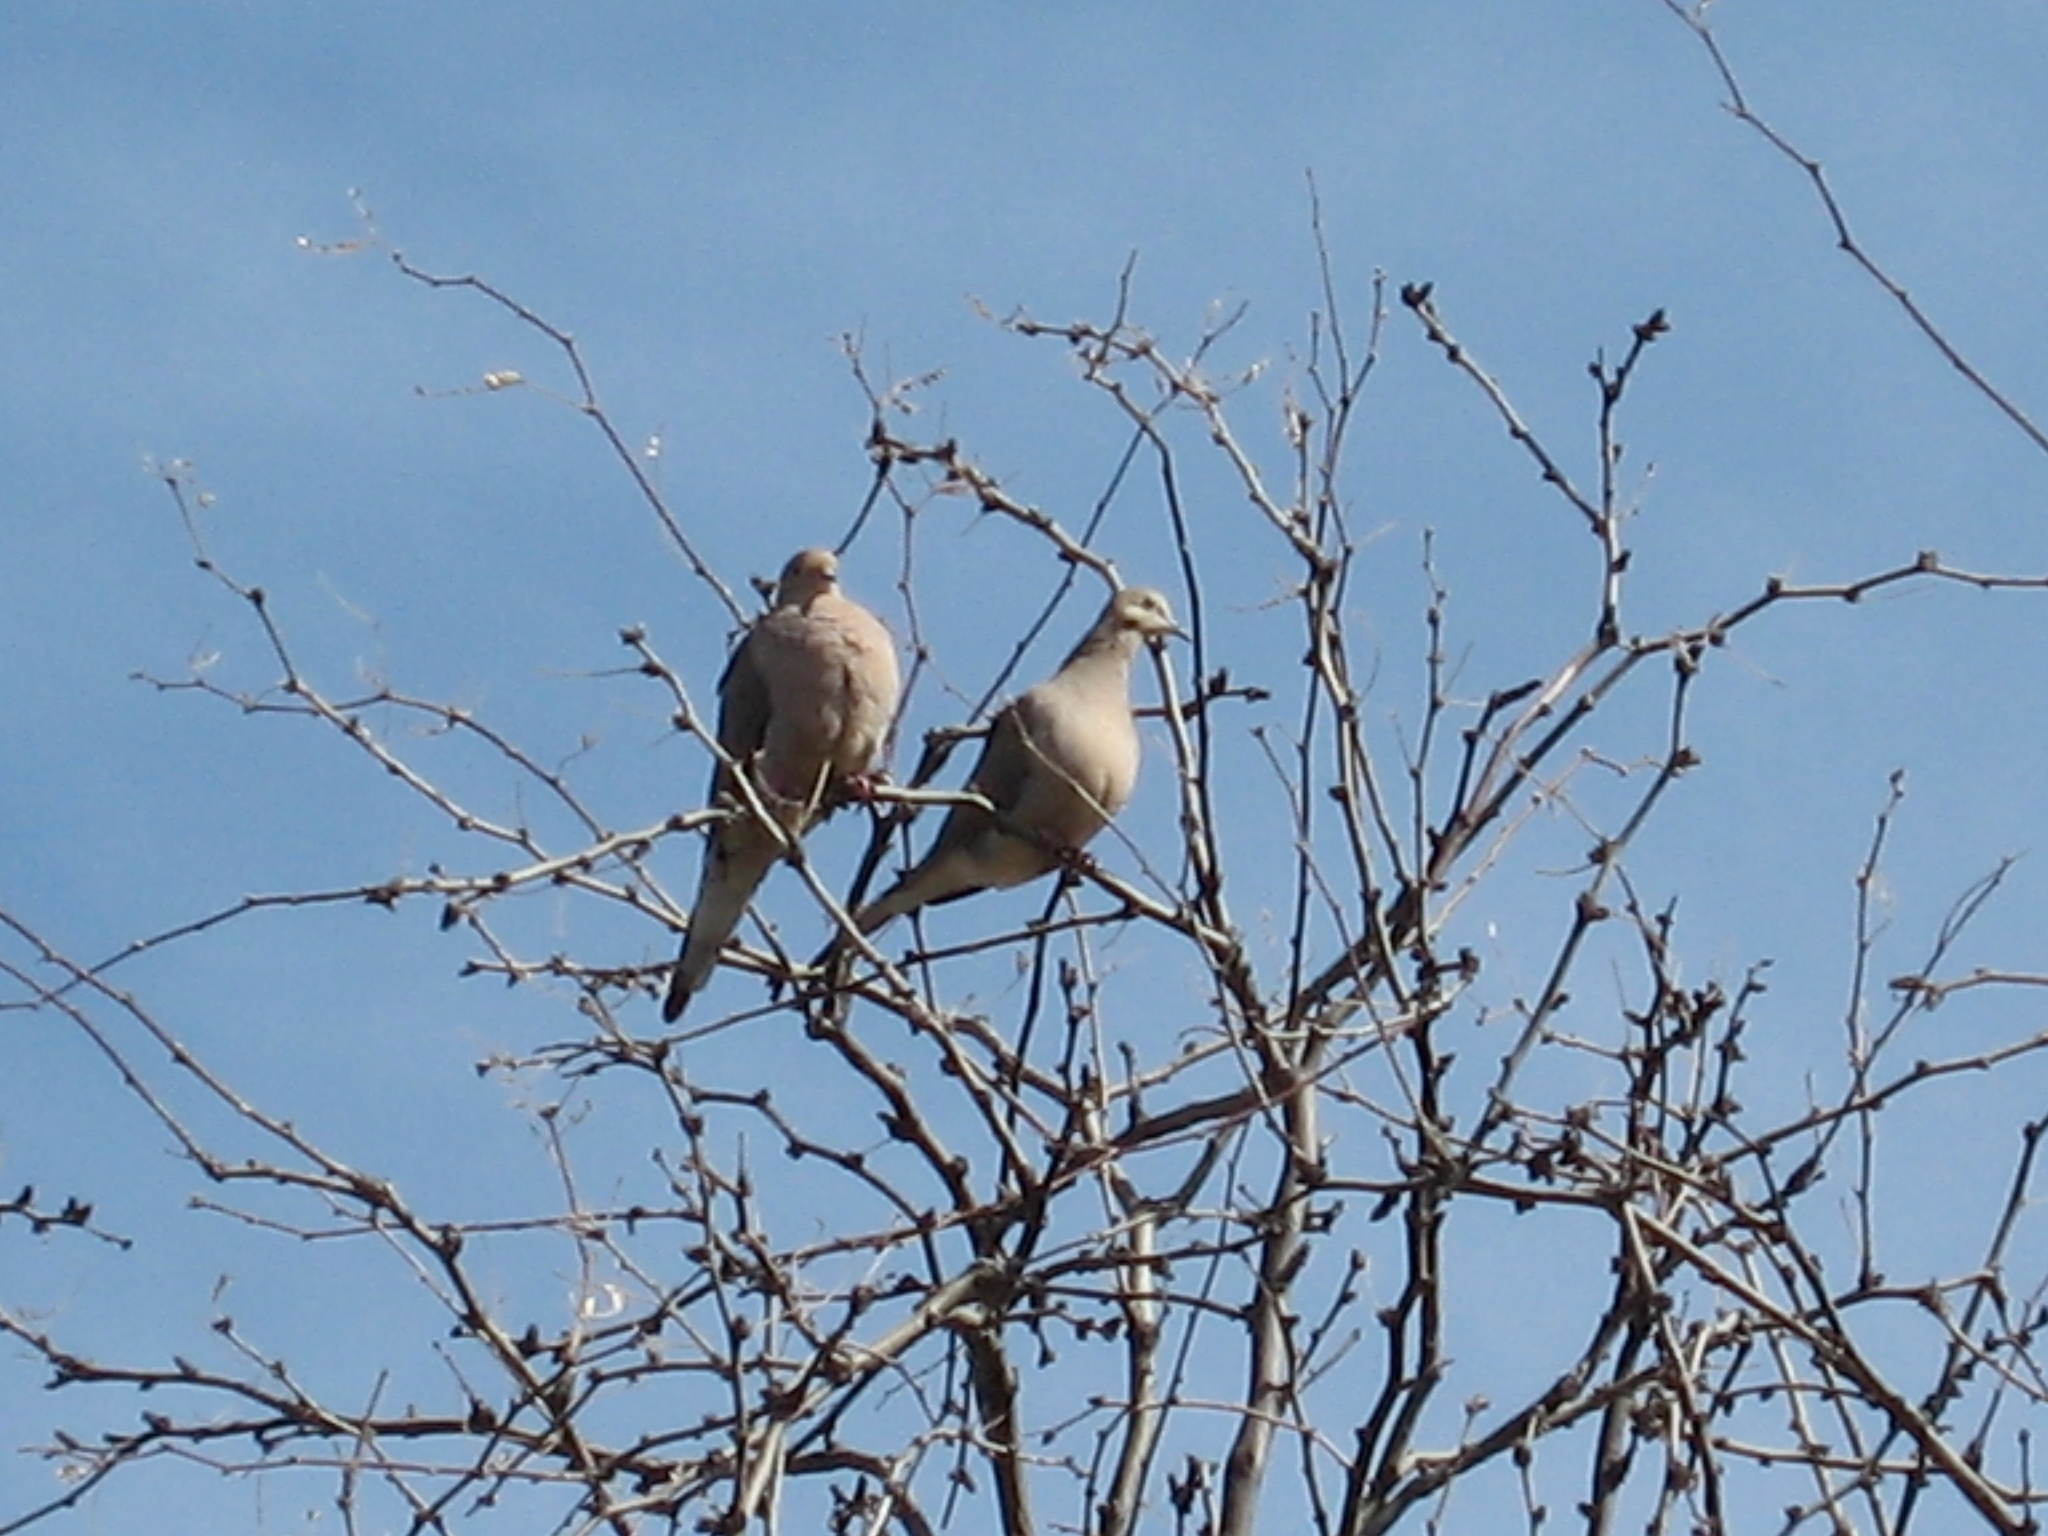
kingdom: Animalia
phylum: Chordata
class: Aves
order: Columbiformes
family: Columbidae
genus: Zenaida
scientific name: Zenaida macroura
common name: Mourning dove
